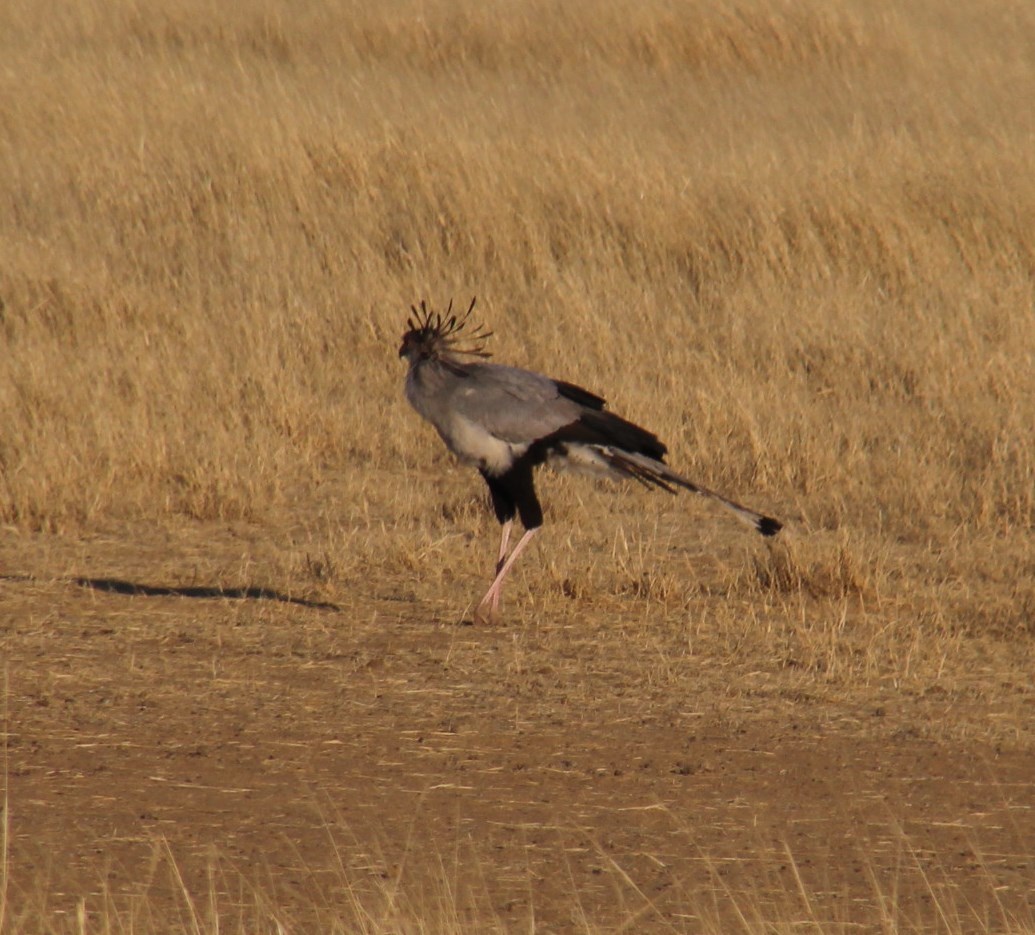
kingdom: Animalia
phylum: Chordata
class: Aves
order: Accipitriformes
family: Sagittariidae
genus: Sagittarius
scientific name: Sagittarius serpentarius
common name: Secretarybird
